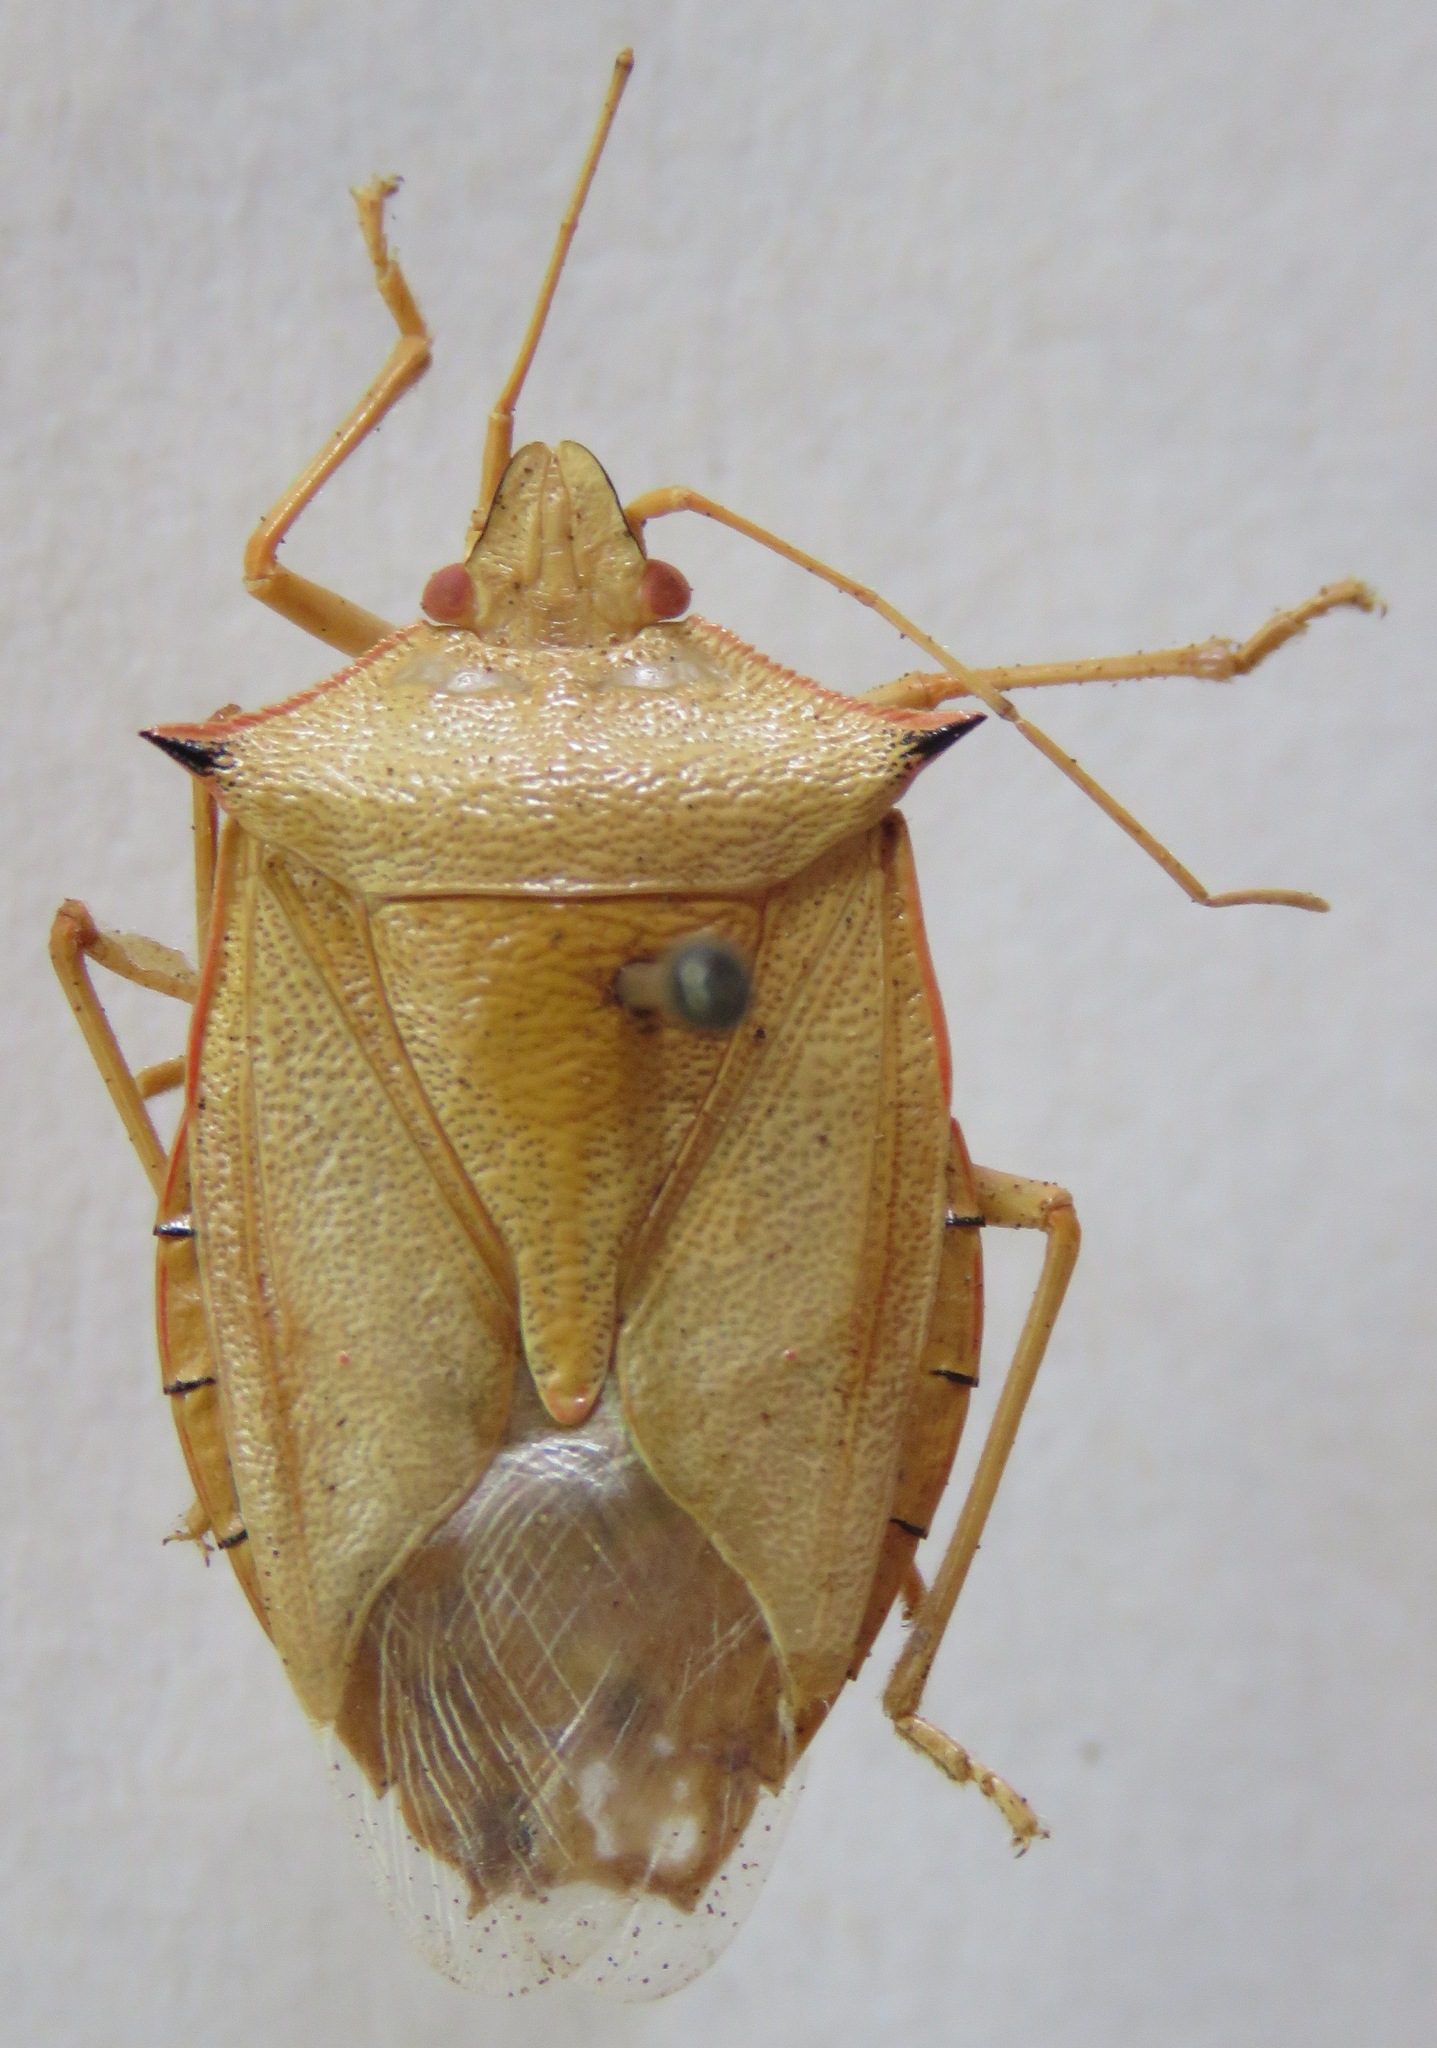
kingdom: Animalia
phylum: Arthropoda
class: Insecta
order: Hemiptera
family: Pentatomidae
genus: Chlorocoris
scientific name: Chlorocoris rufispinus
